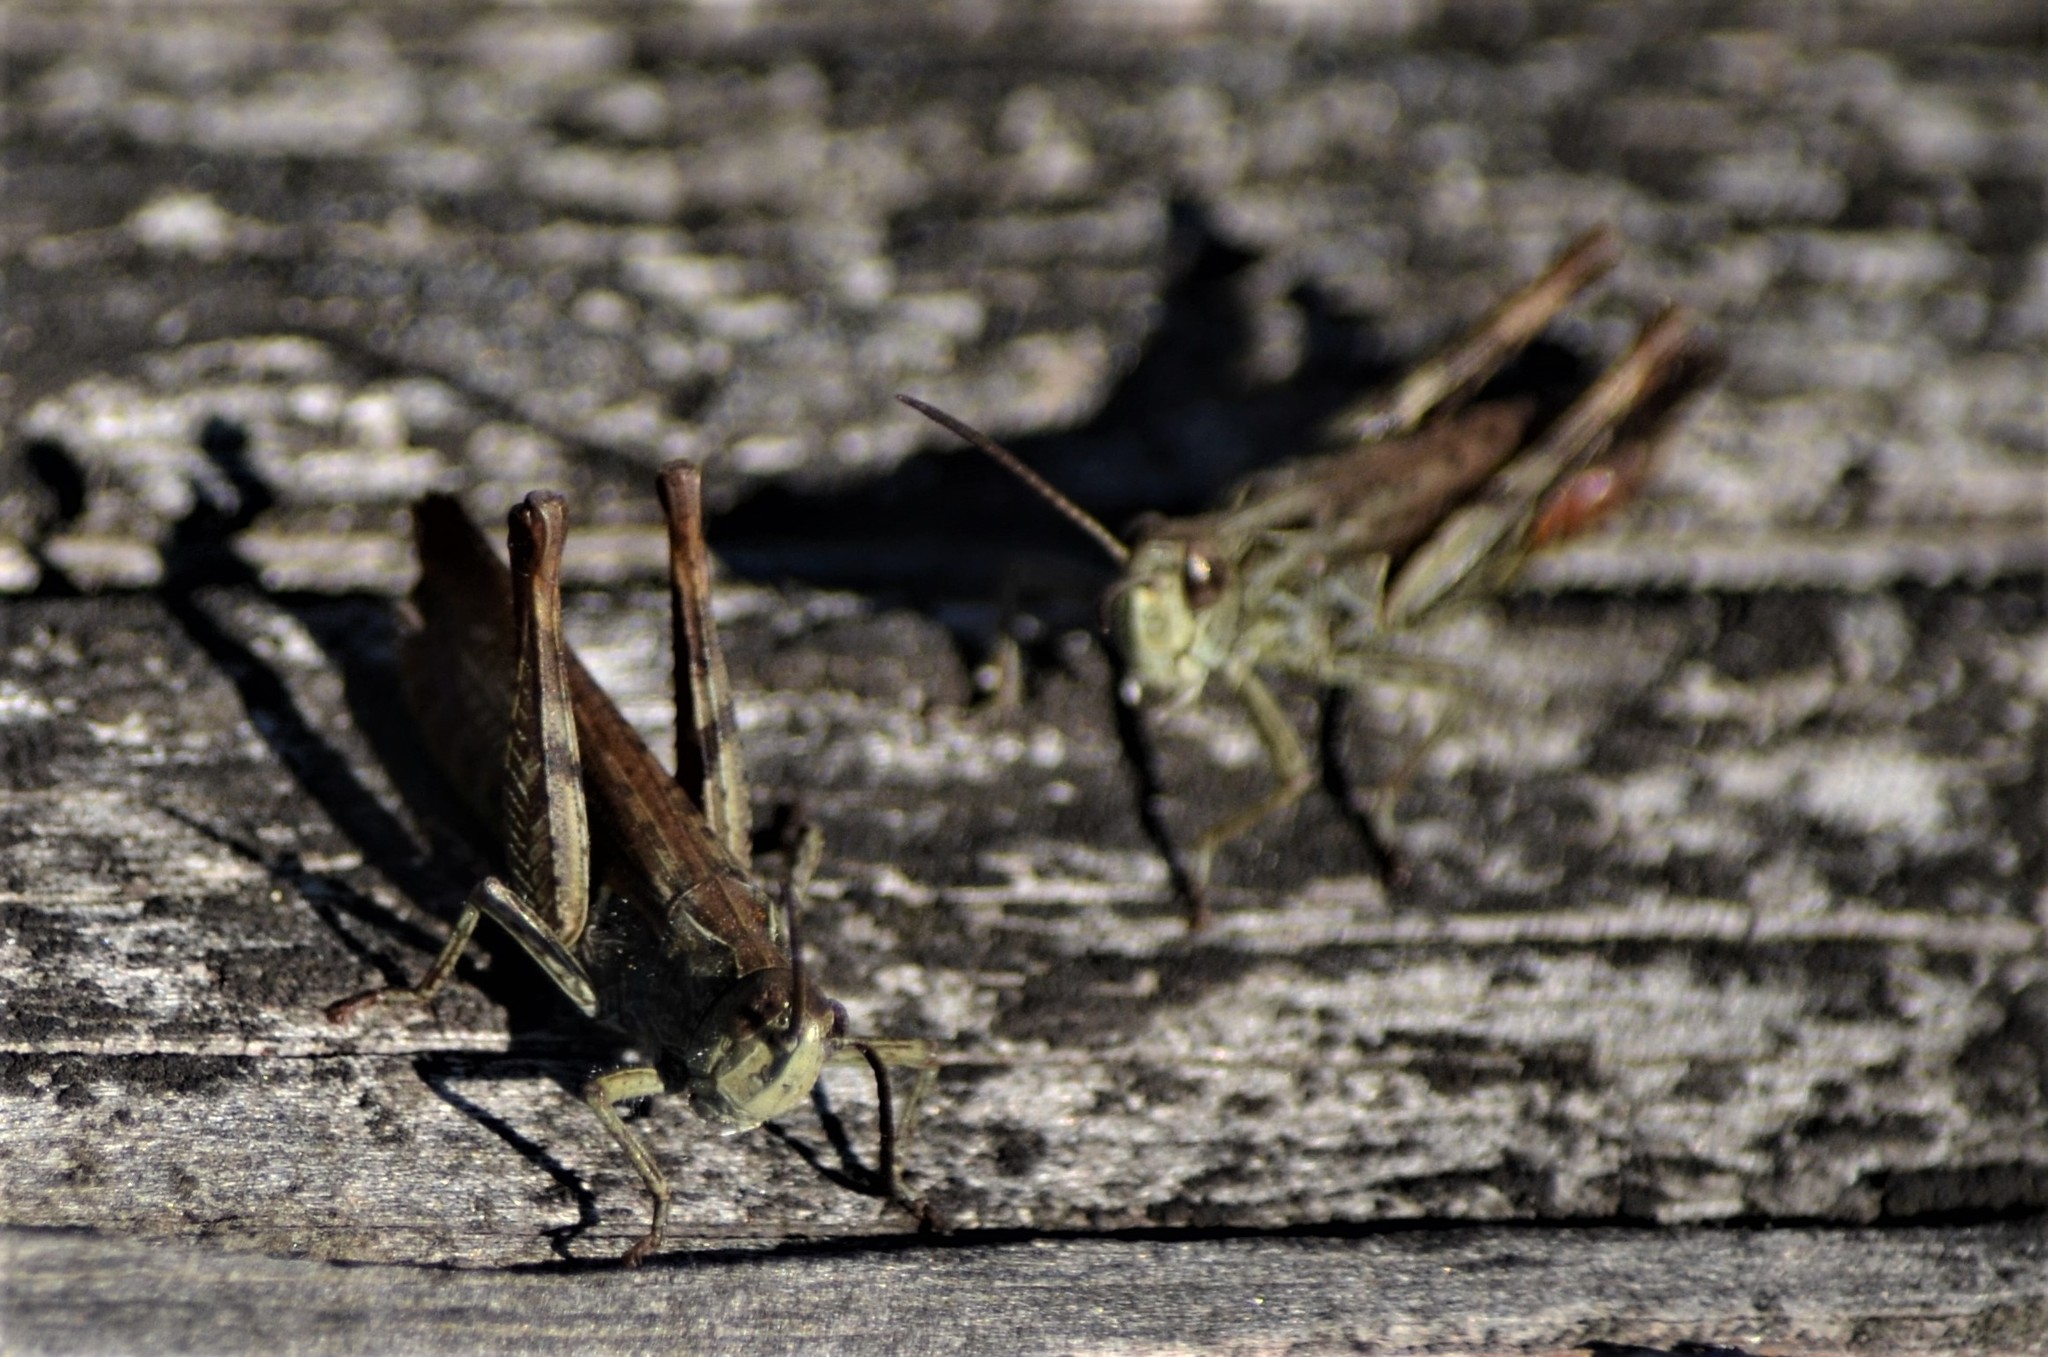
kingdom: Animalia
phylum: Arthropoda
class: Insecta
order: Orthoptera
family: Acrididae
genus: Chorthippus
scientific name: Chorthippus biguttulus
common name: Bow-winged grasshopper
